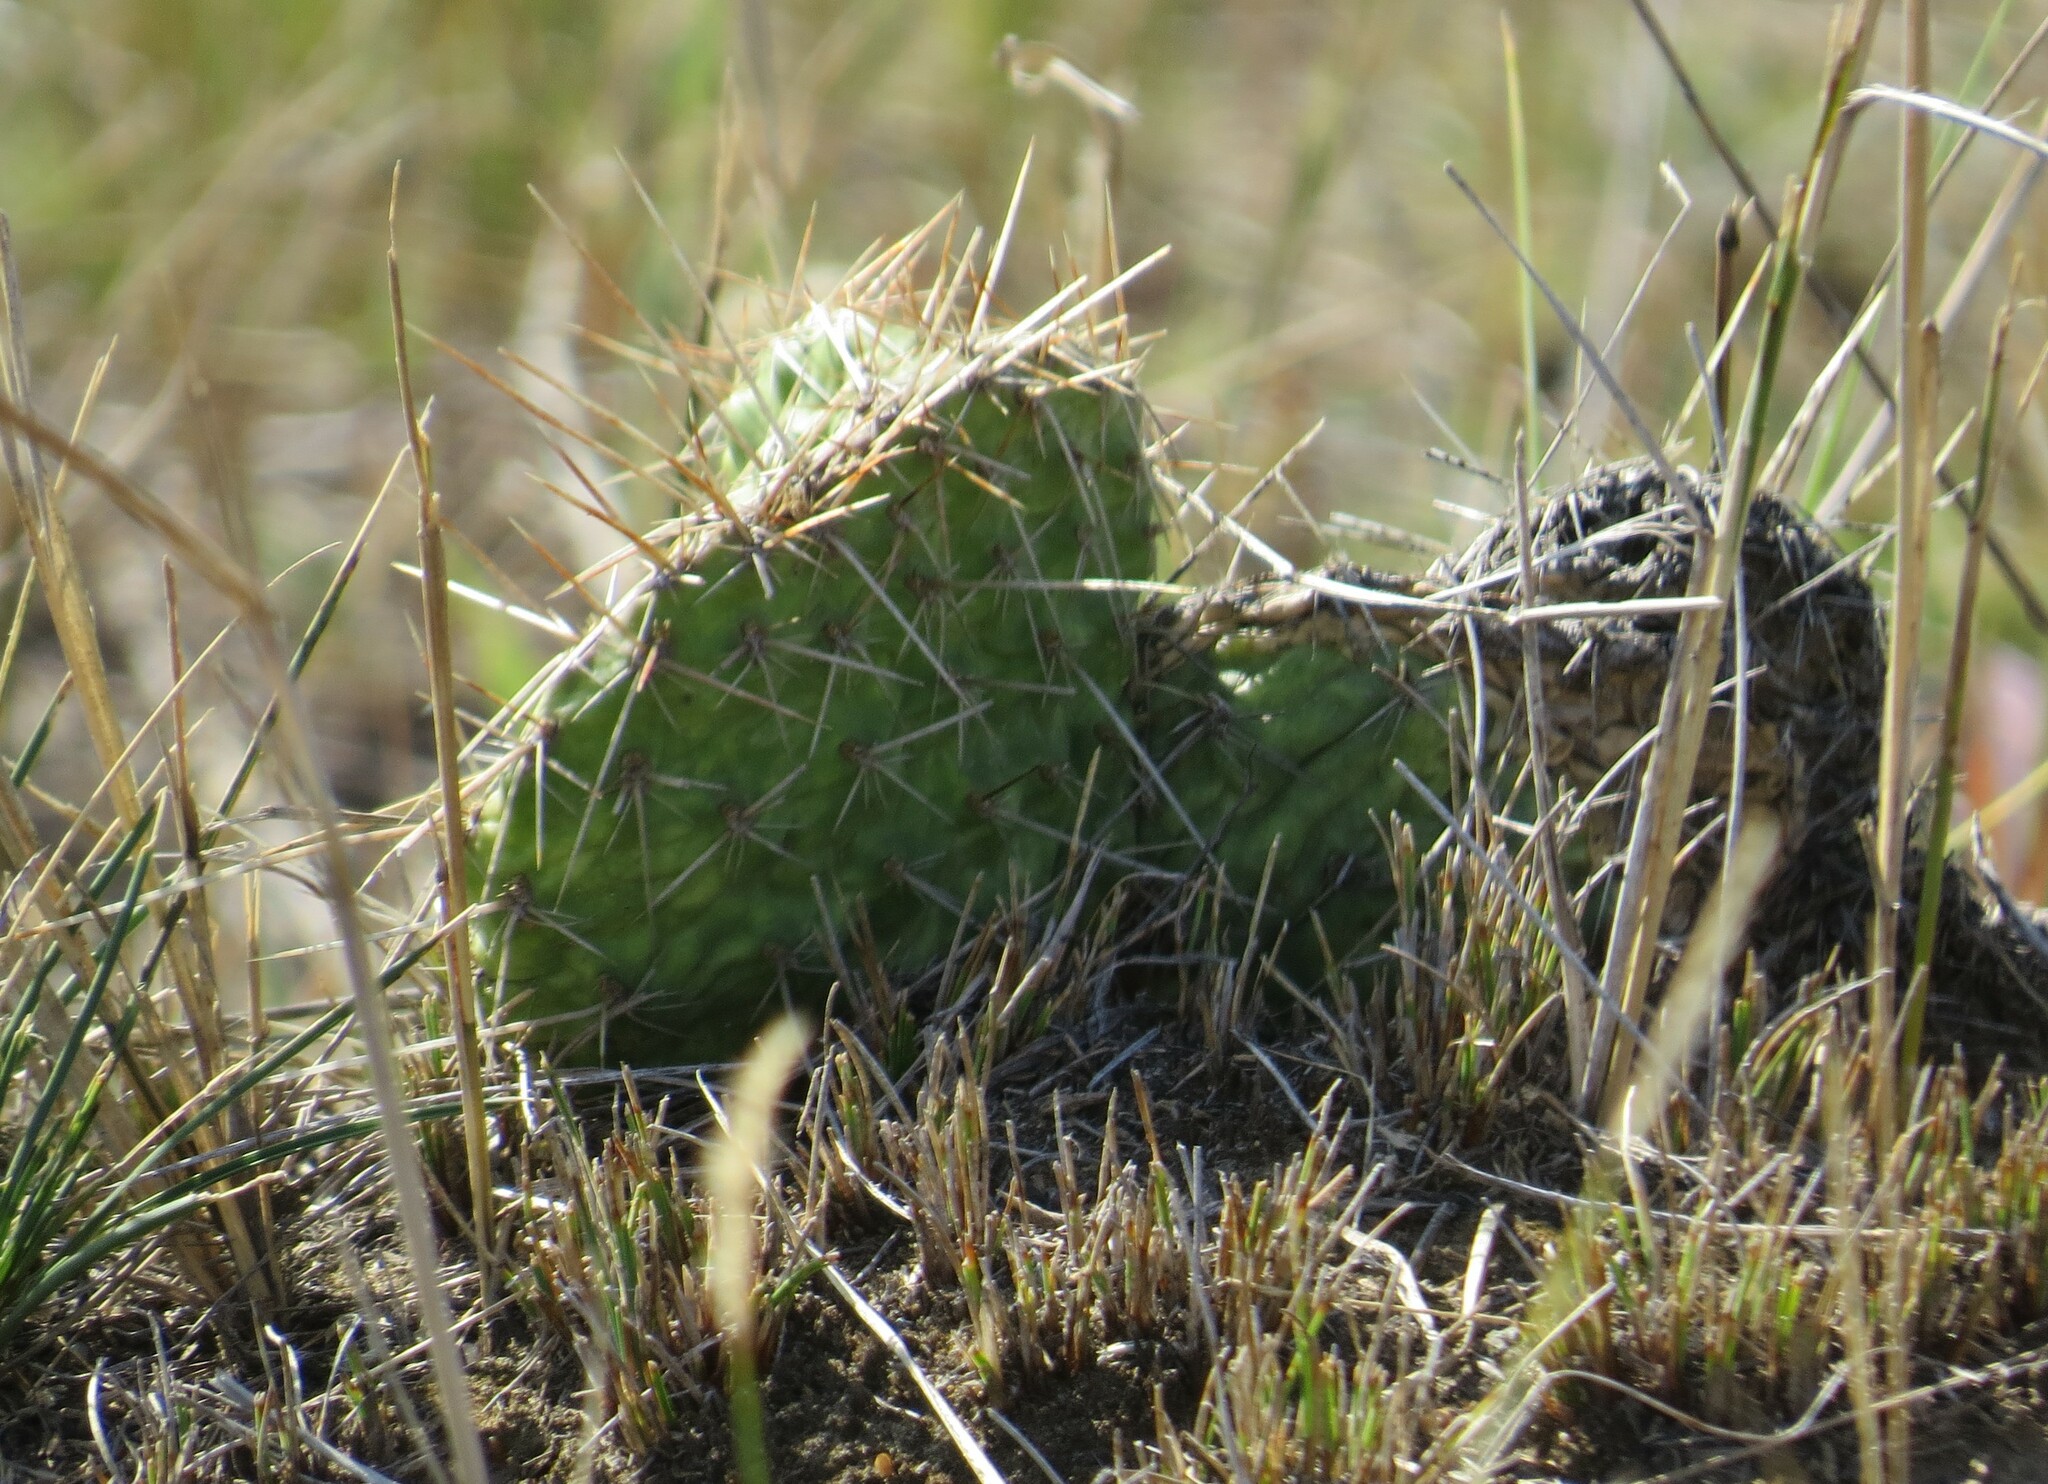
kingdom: Plantae
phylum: Tracheophyta
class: Magnoliopsida
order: Caryophyllales
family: Cactaceae
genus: Opuntia
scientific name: Opuntia polyacantha
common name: Plains prickly-pear
